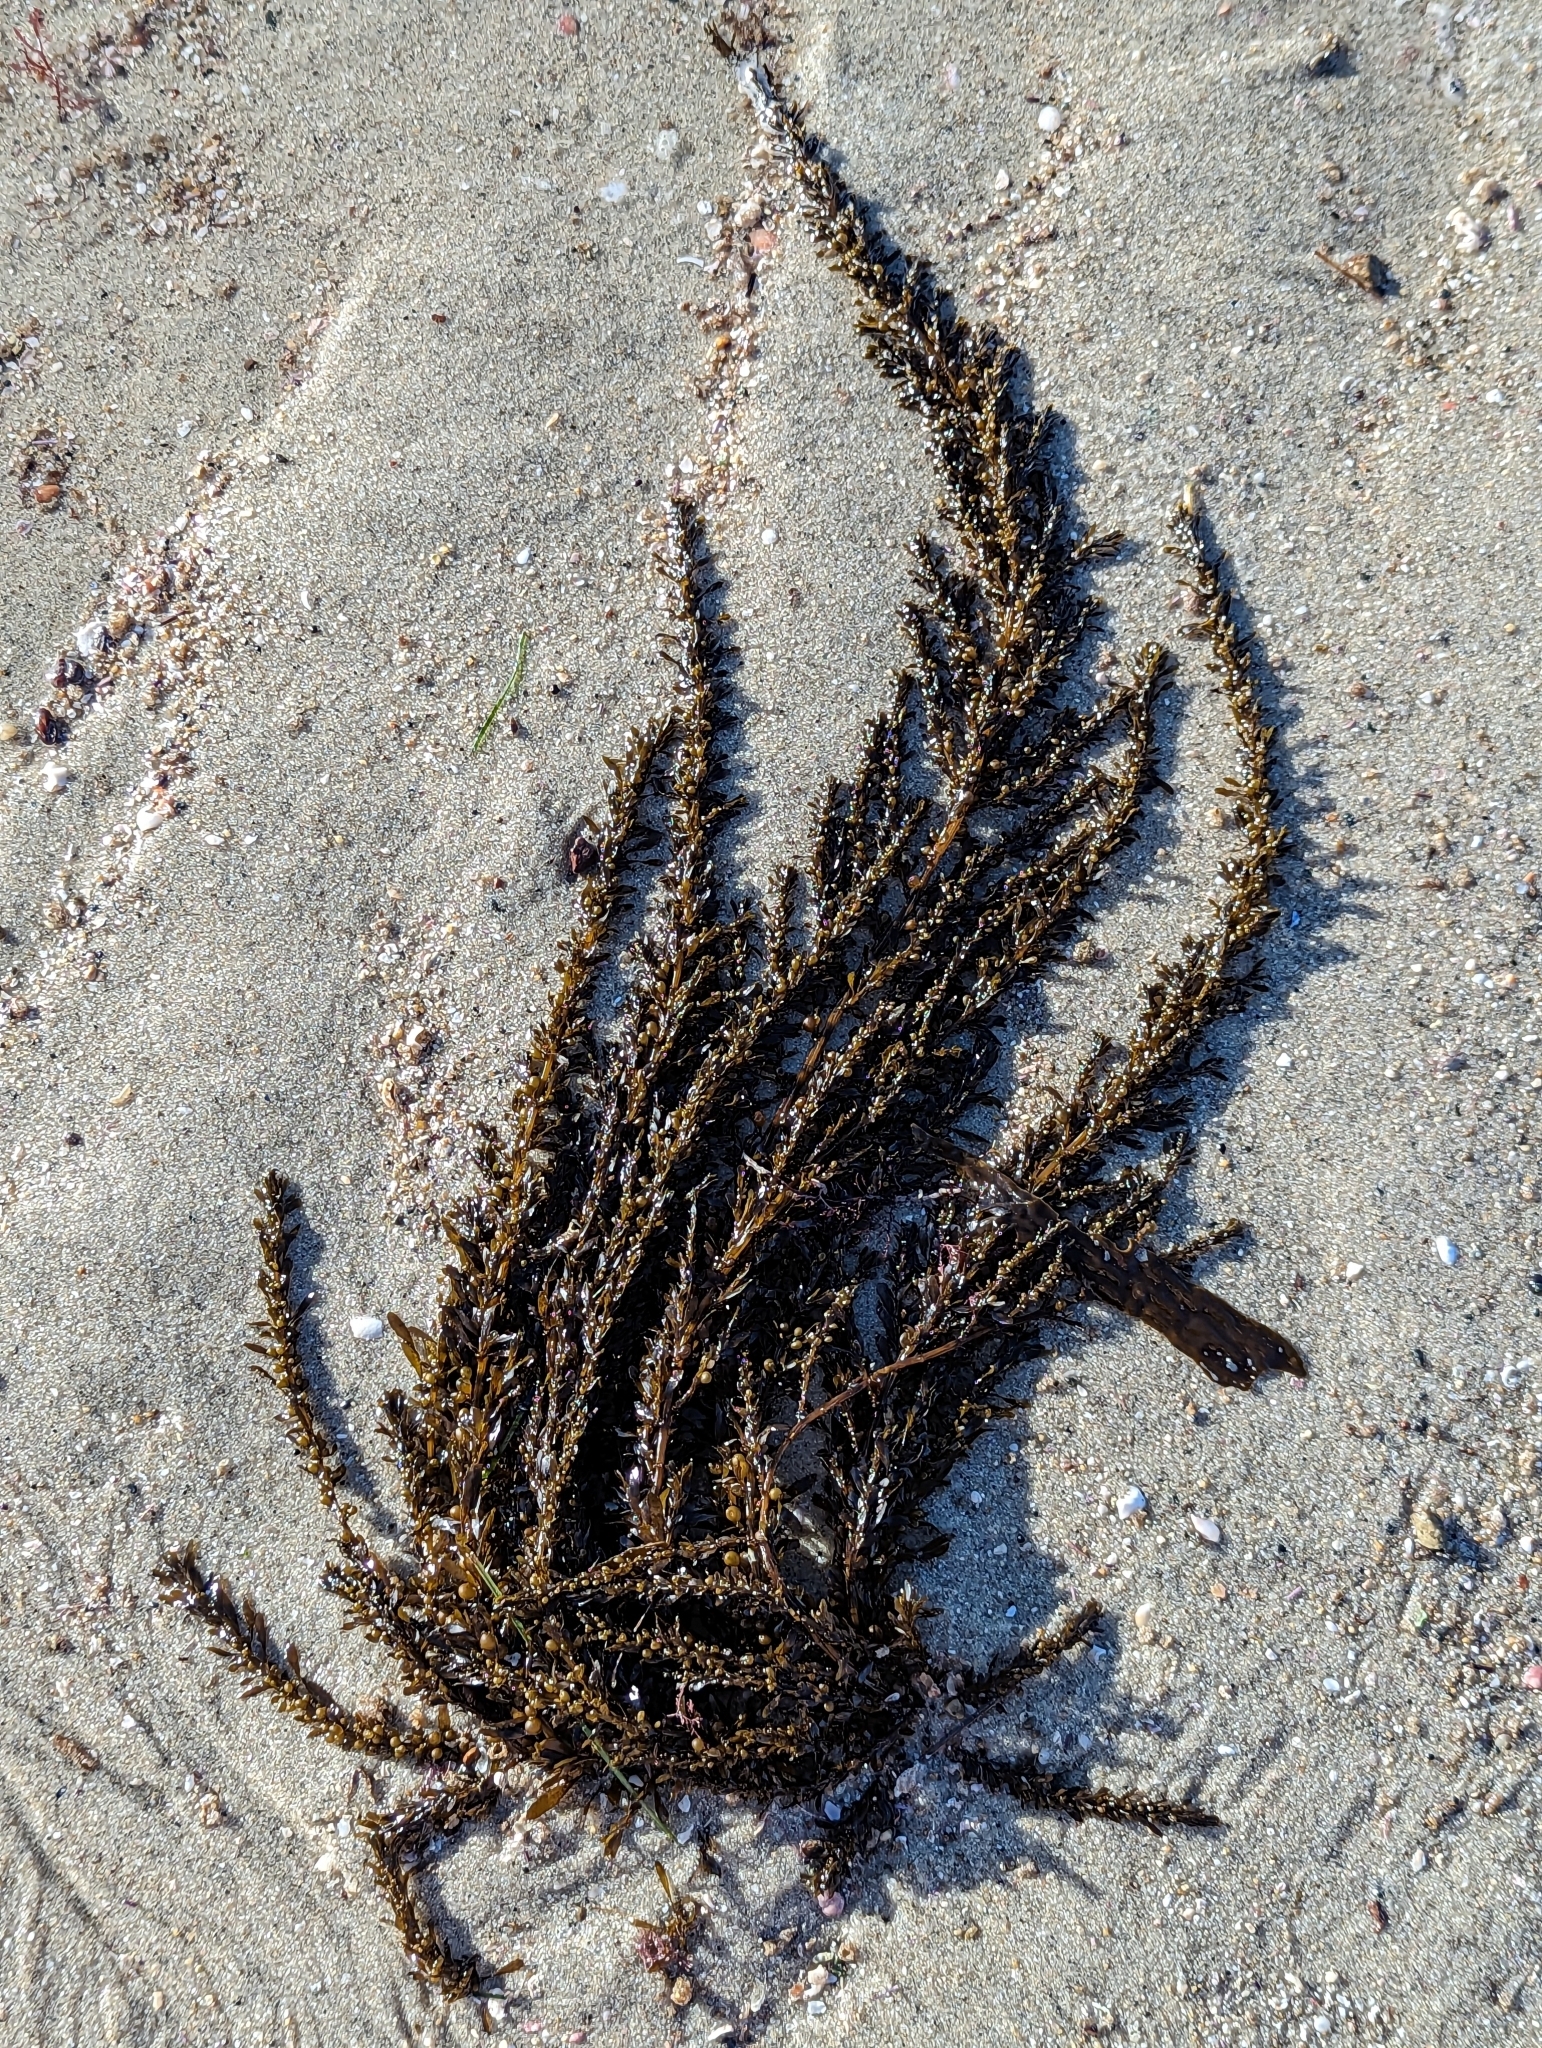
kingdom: Chromista
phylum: Ochrophyta
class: Phaeophyceae
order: Fucales
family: Sargassaceae
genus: Sargassum
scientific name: Sargassum muticum
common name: Japweed
